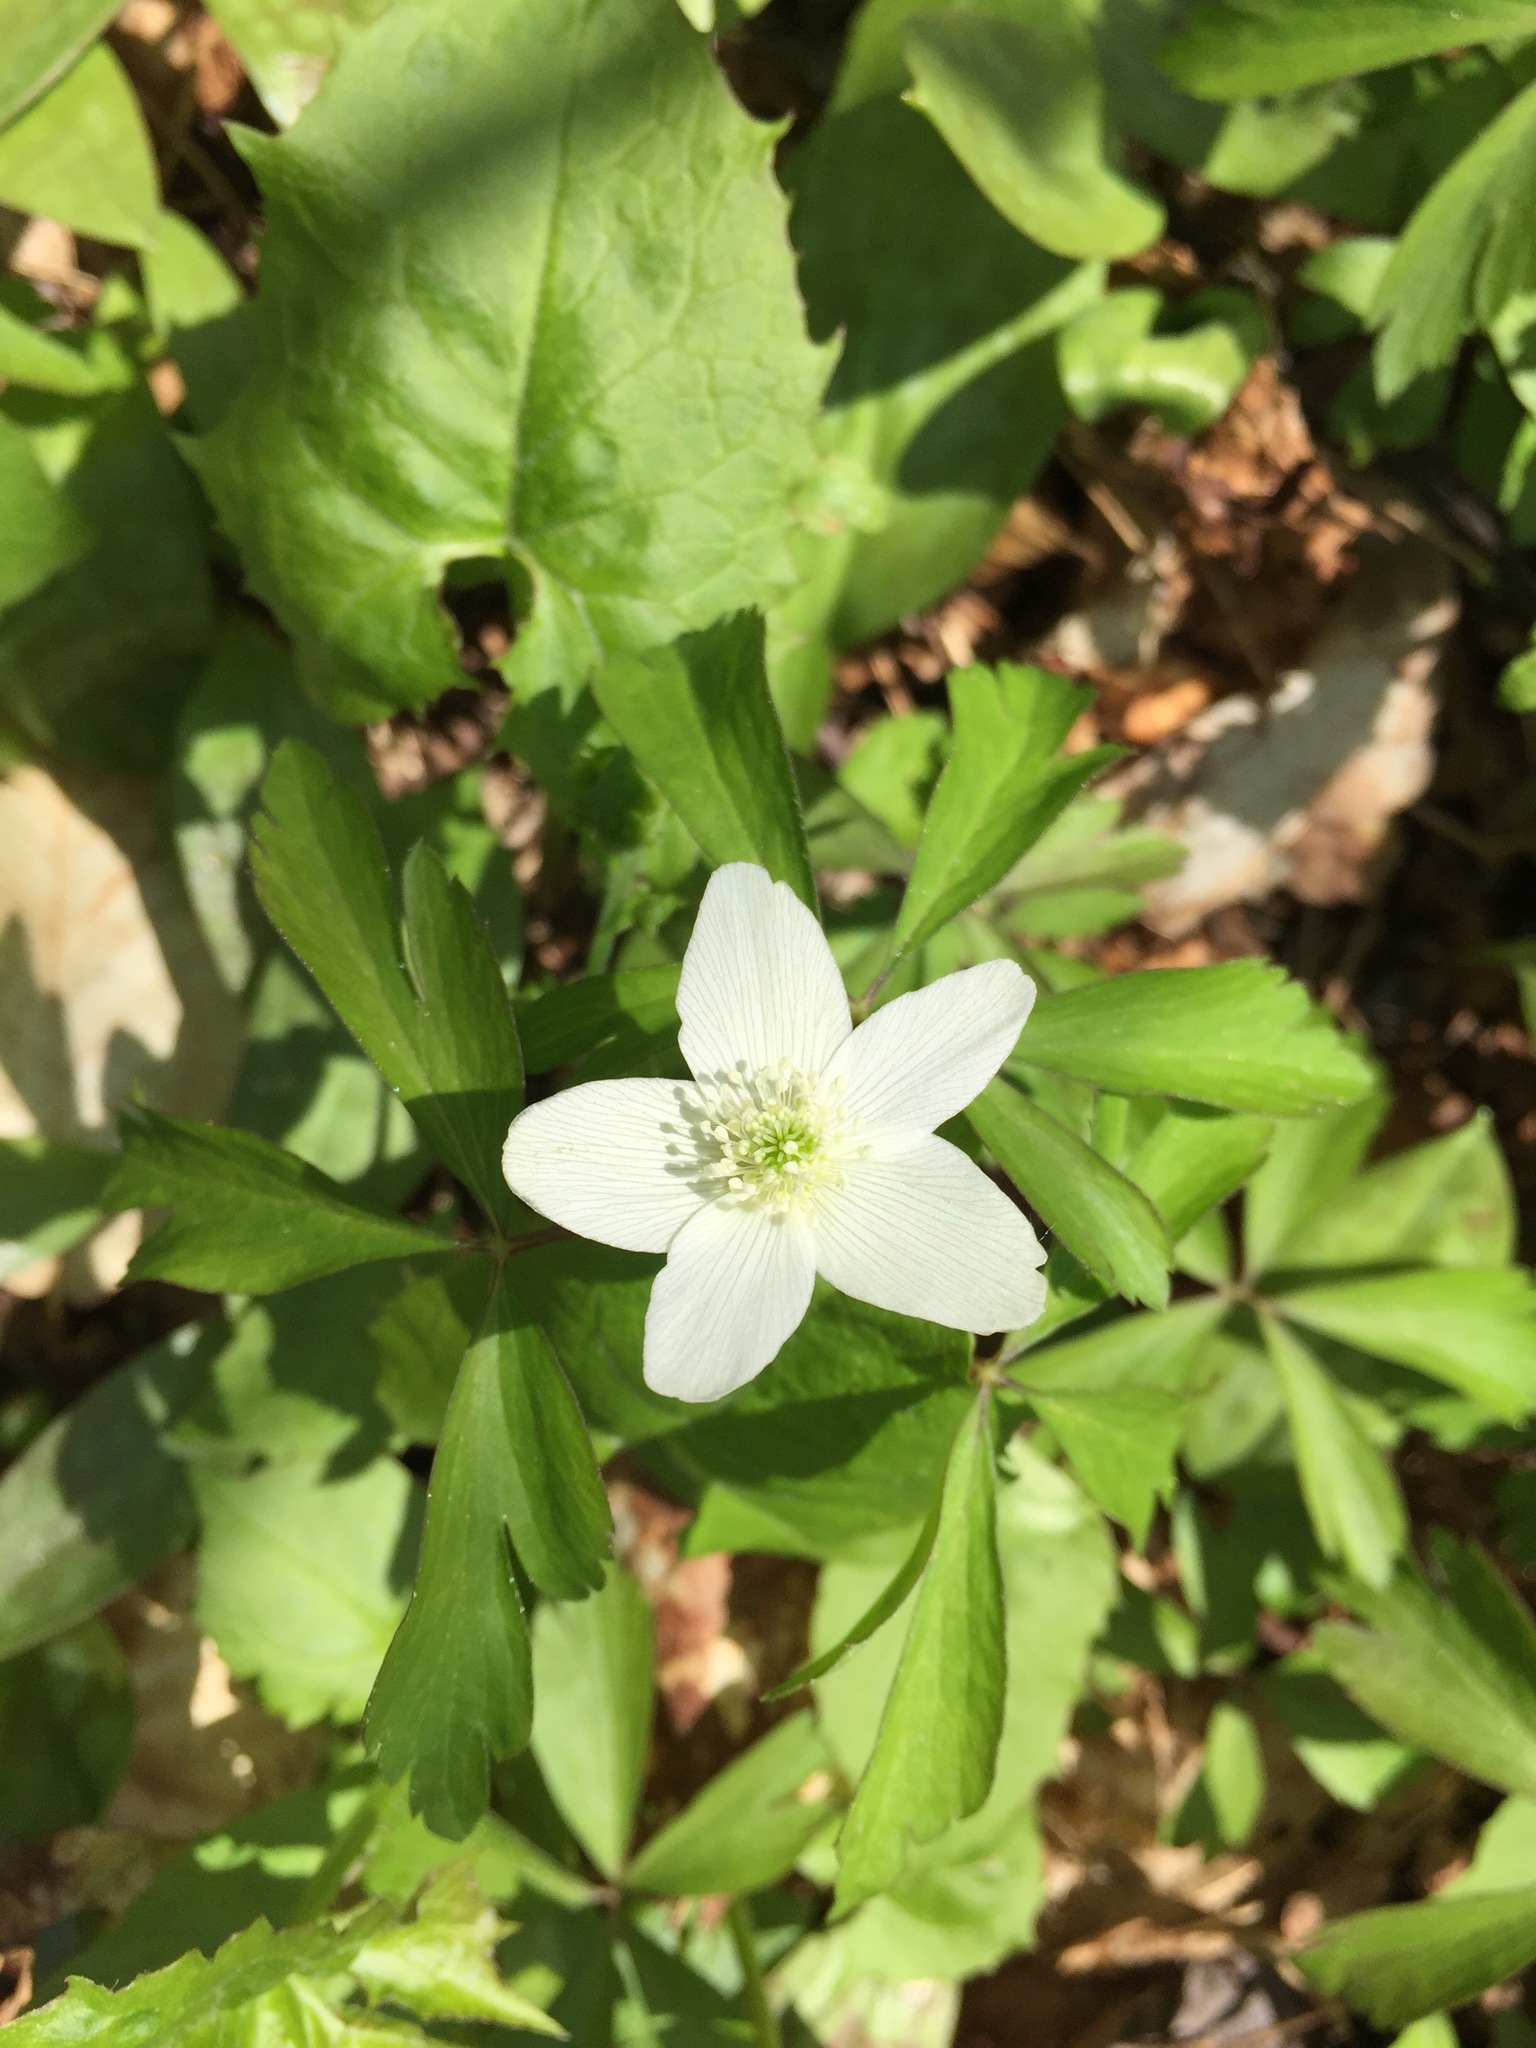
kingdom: Plantae
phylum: Tracheophyta
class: Magnoliopsida
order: Ranunculales
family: Ranunculaceae
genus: Anemone
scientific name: Anemone quinquefolia
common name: Wood anemone
